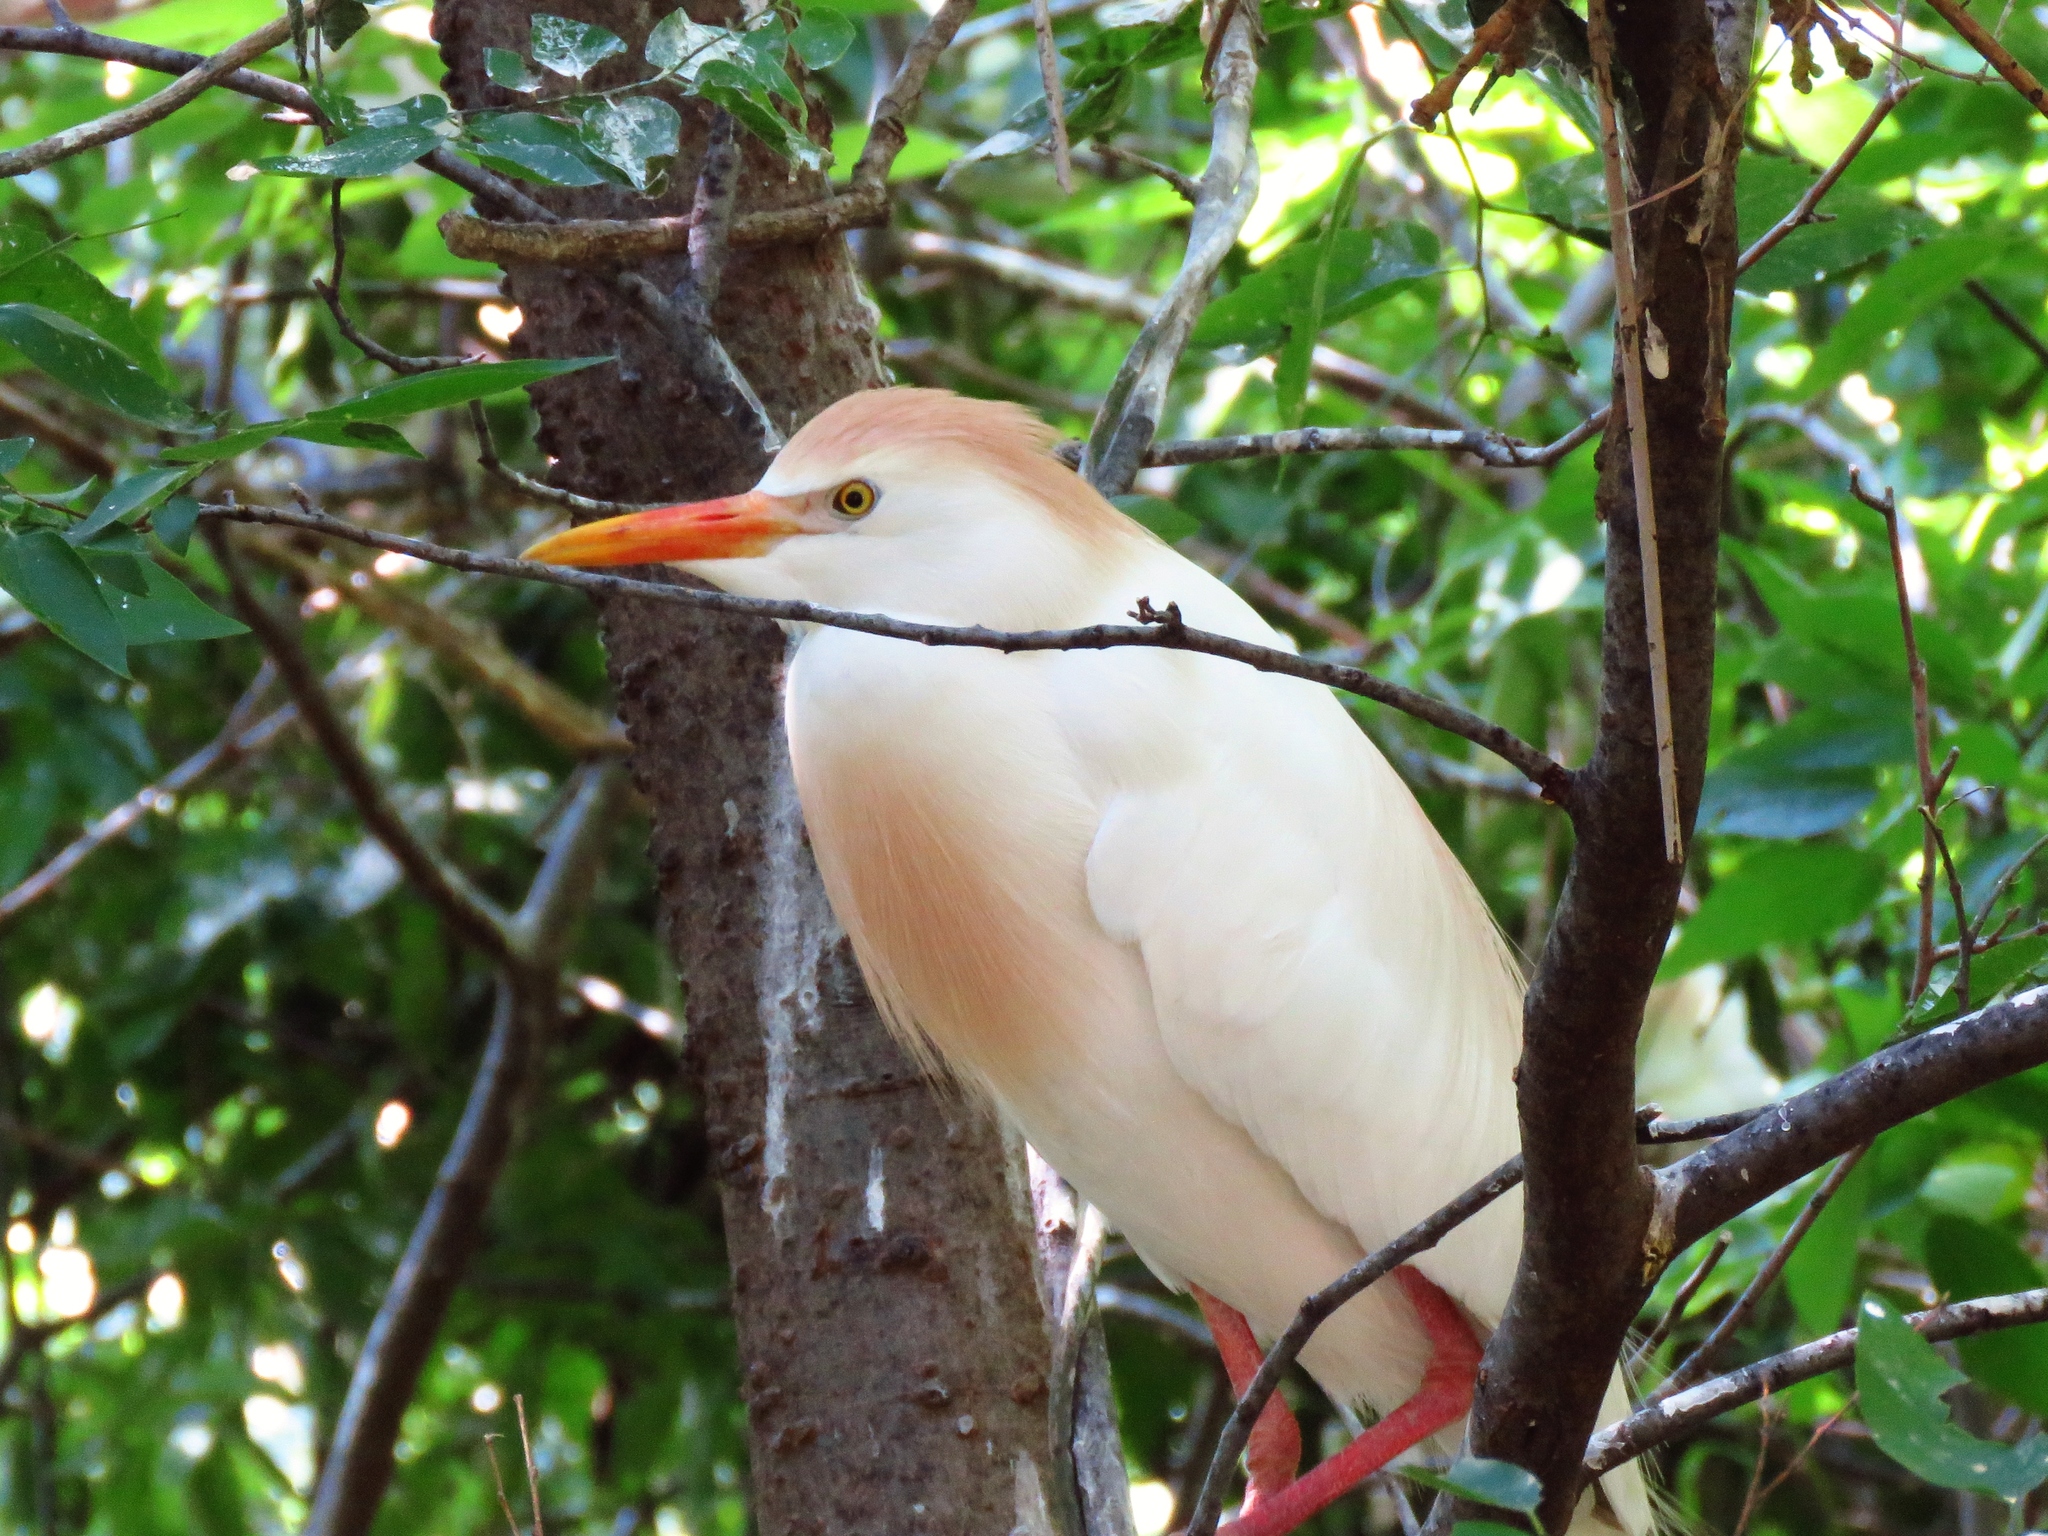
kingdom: Animalia
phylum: Chordata
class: Aves
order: Pelecaniformes
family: Ardeidae
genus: Bubulcus
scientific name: Bubulcus ibis
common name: Cattle egret
